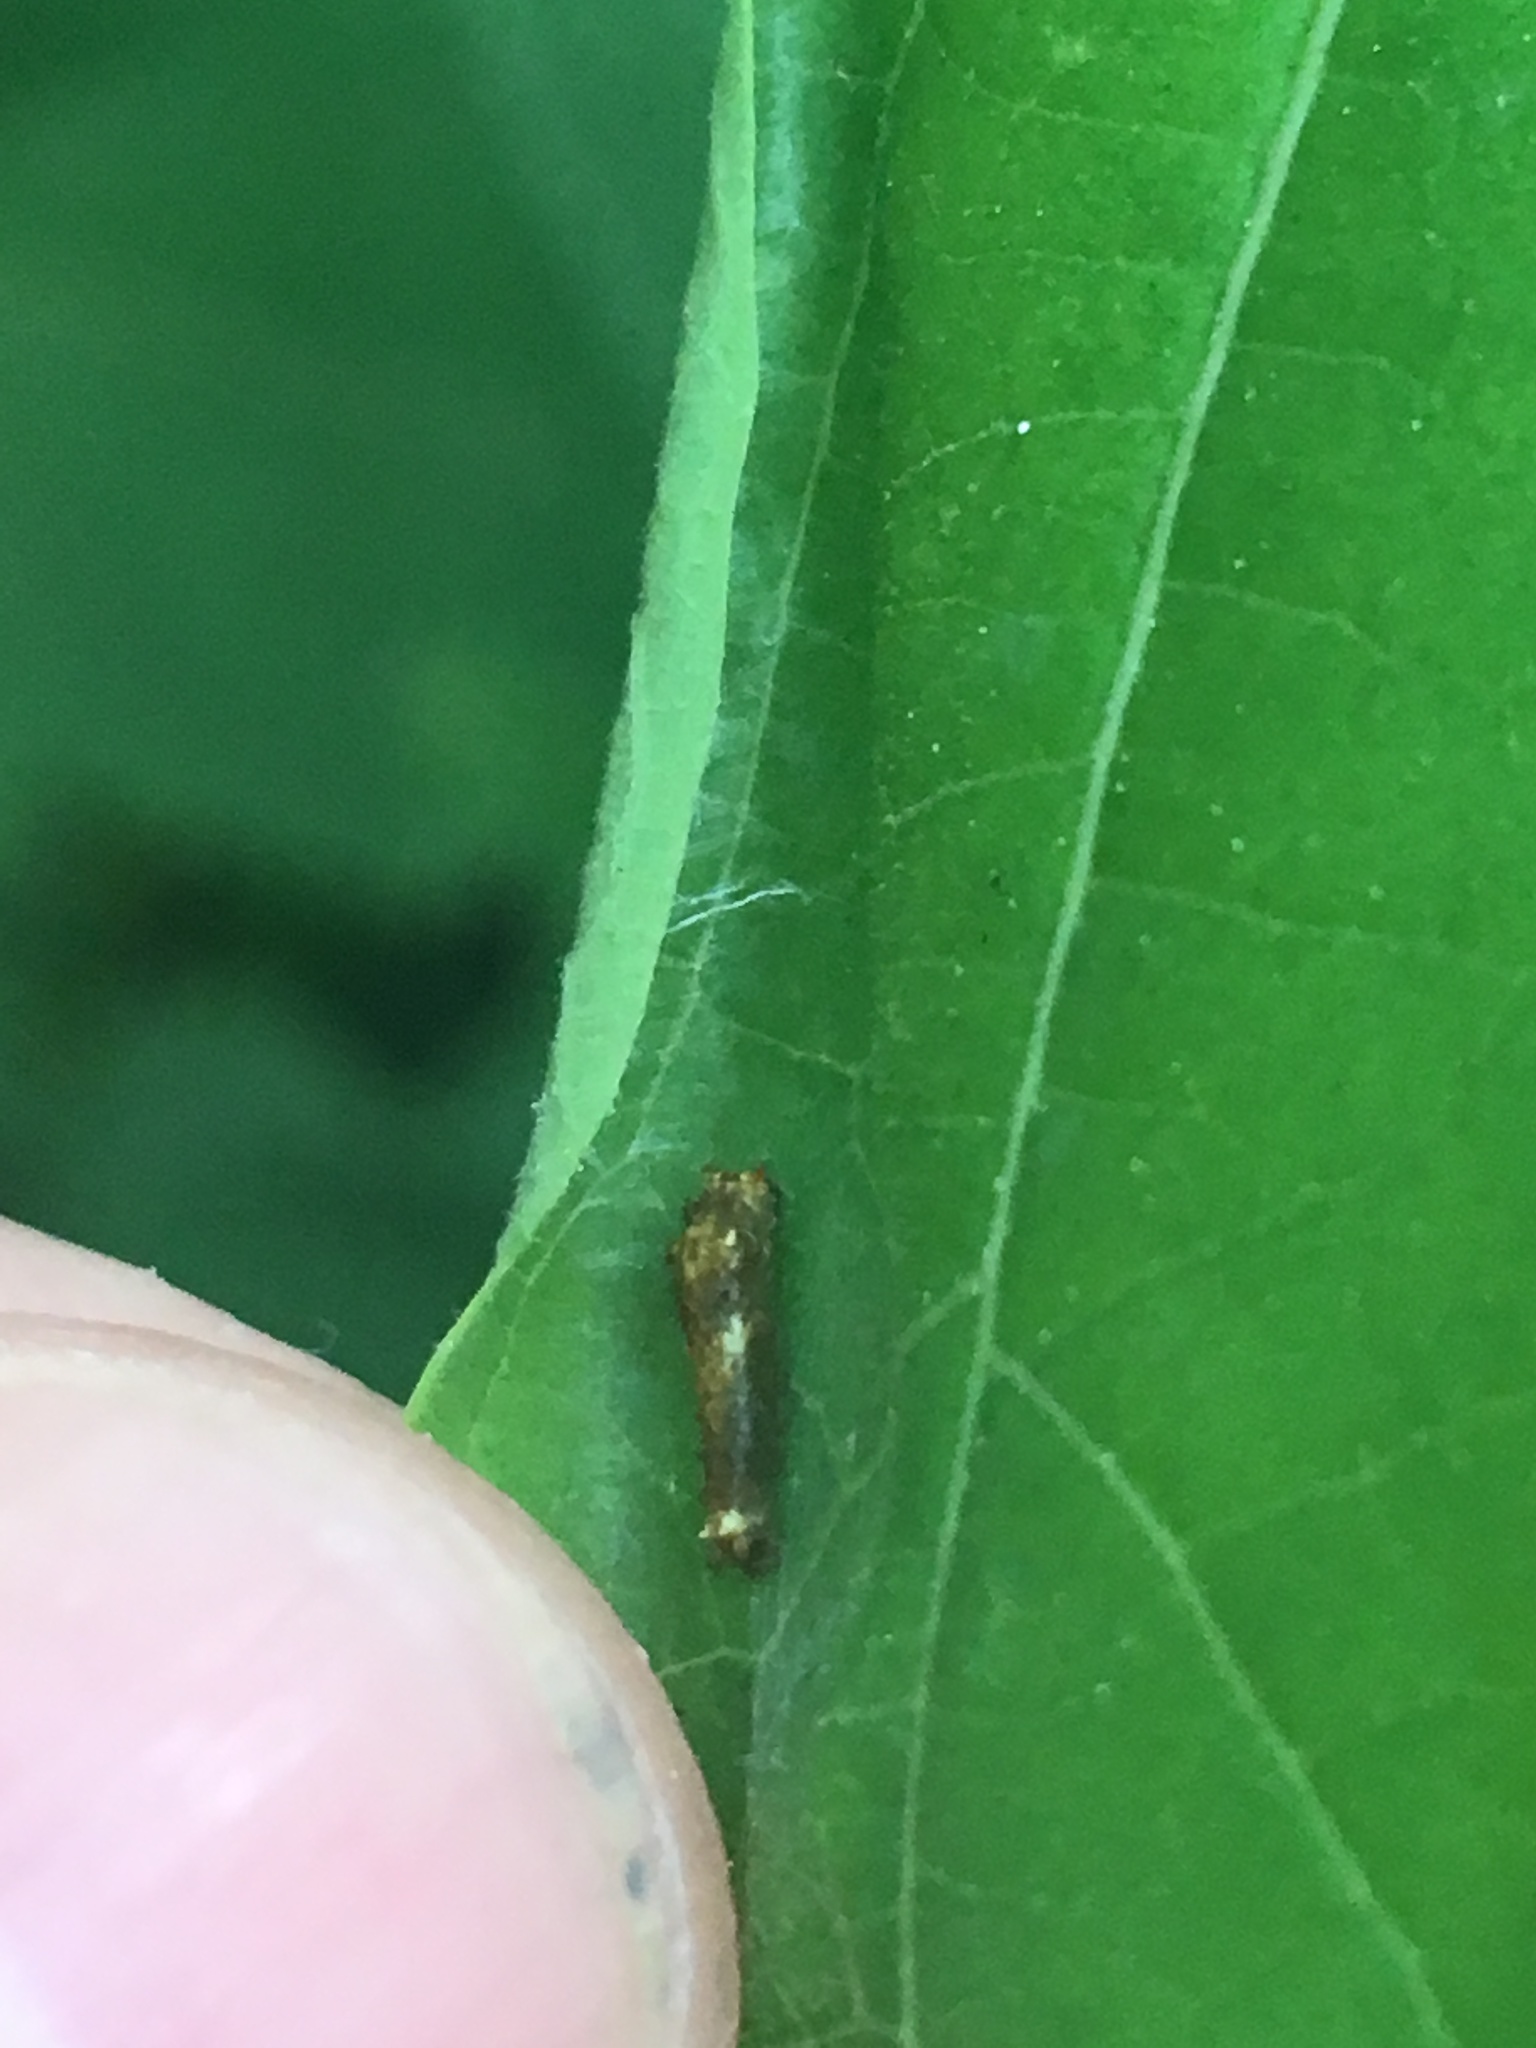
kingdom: Animalia
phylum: Arthropoda
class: Insecta
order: Lepidoptera
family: Papilionidae
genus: Papilio
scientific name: Papilio troilus
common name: Spicebush swallowtail
